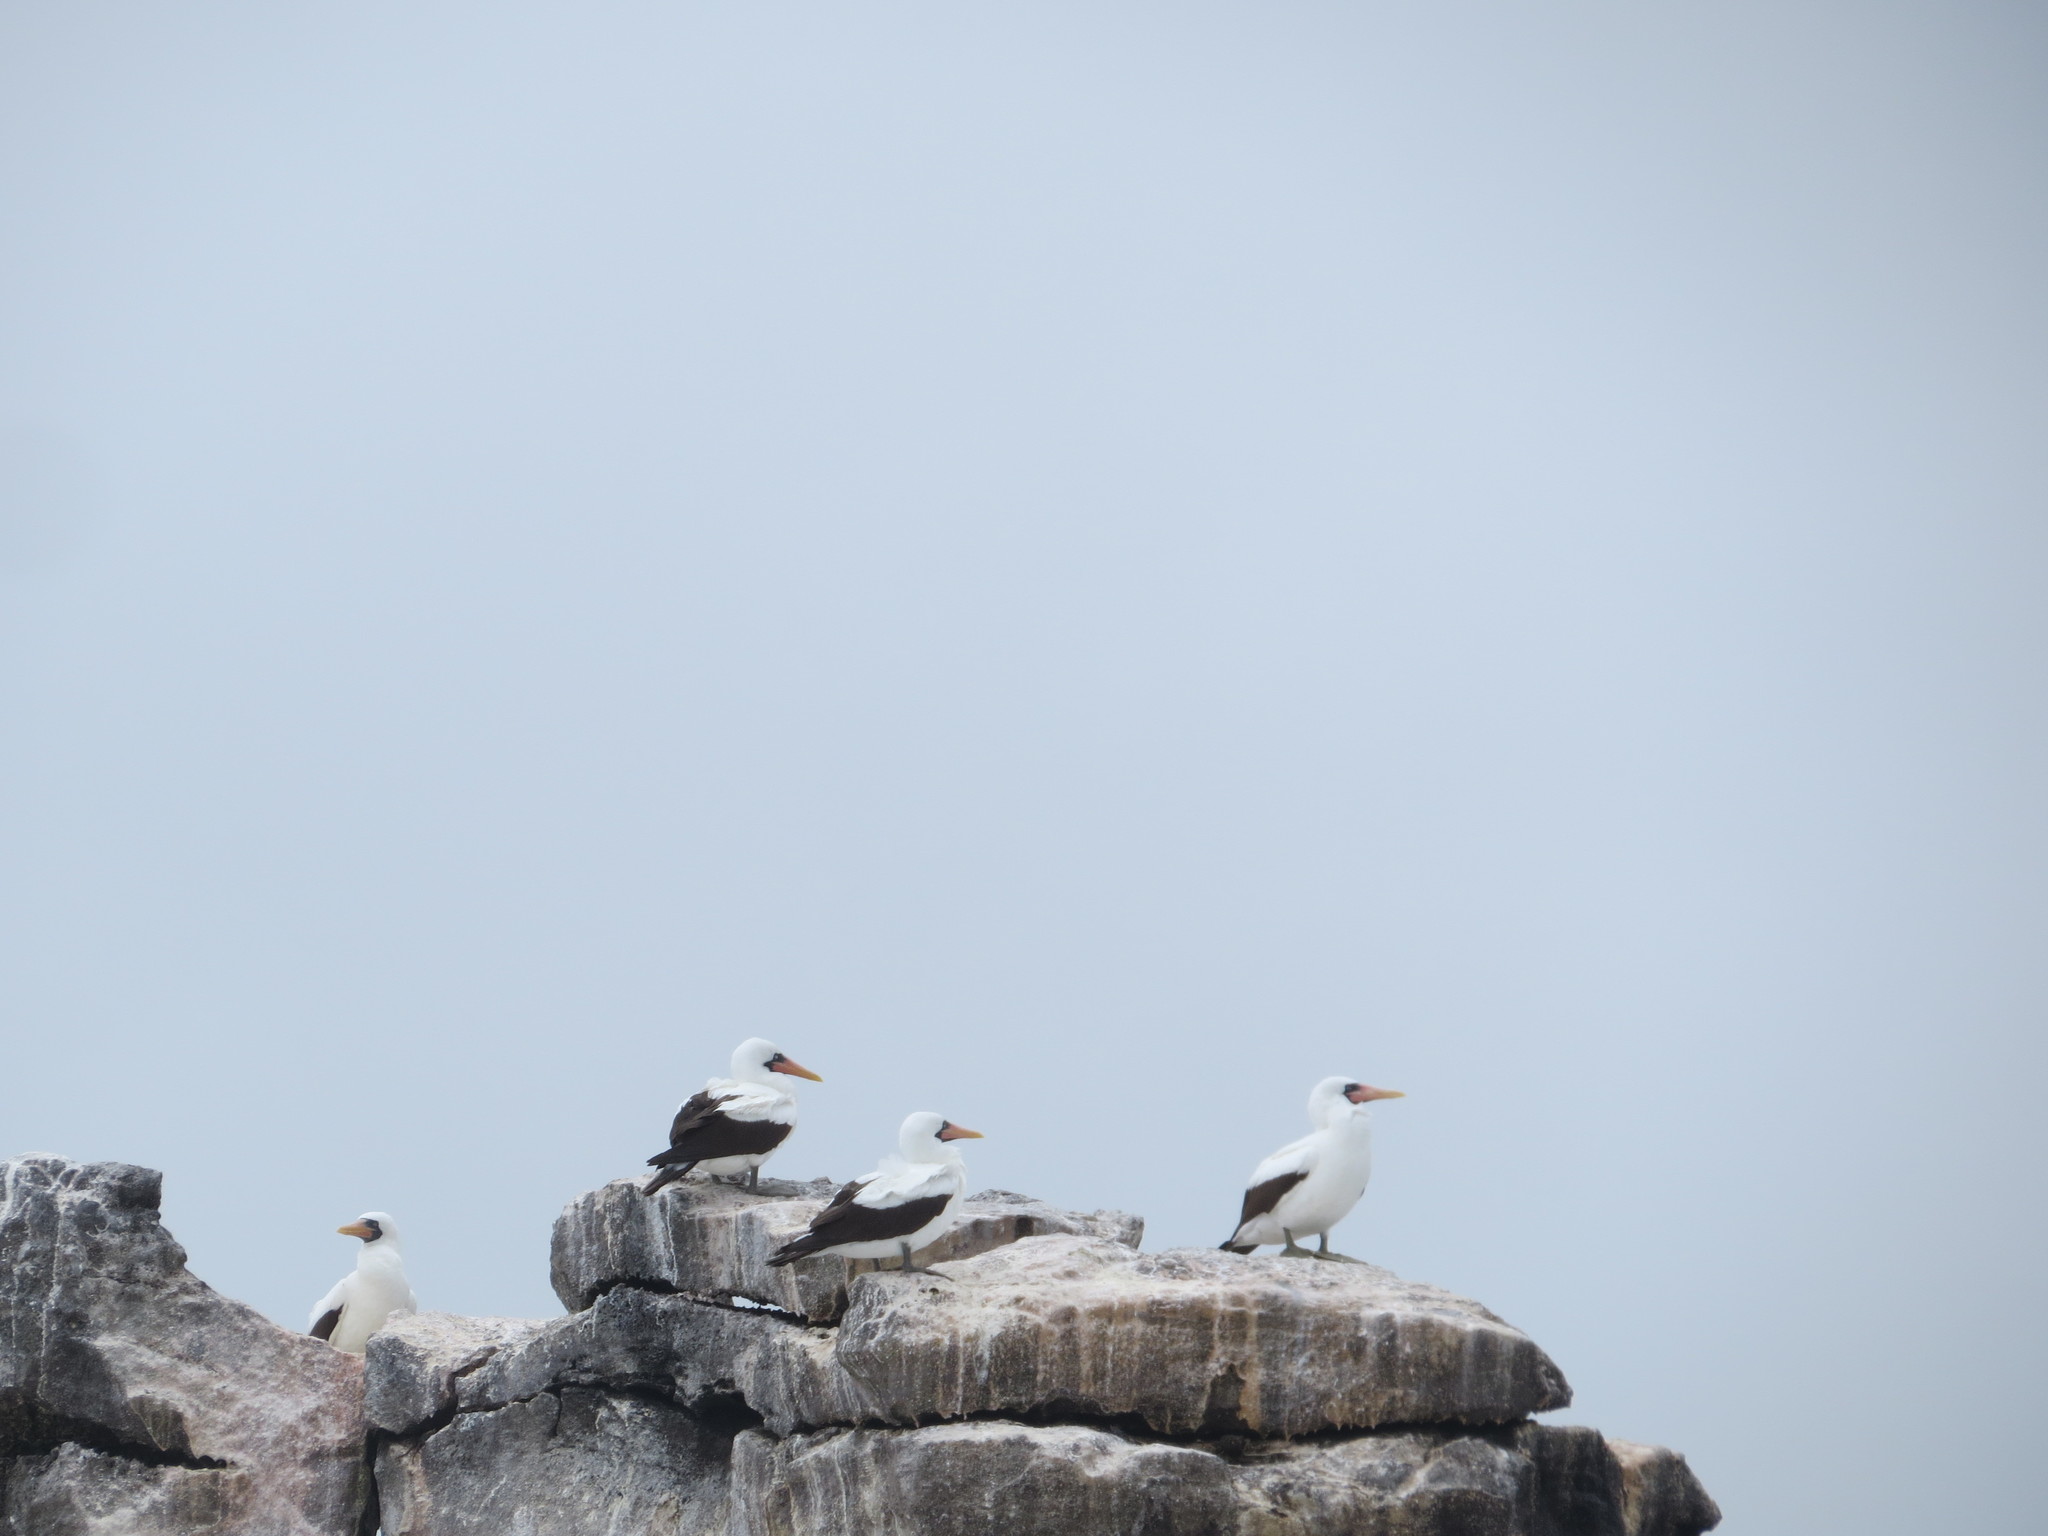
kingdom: Animalia
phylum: Chordata
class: Aves
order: Suliformes
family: Sulidae
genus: Sula
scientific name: Sula granti
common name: Nazca booby
